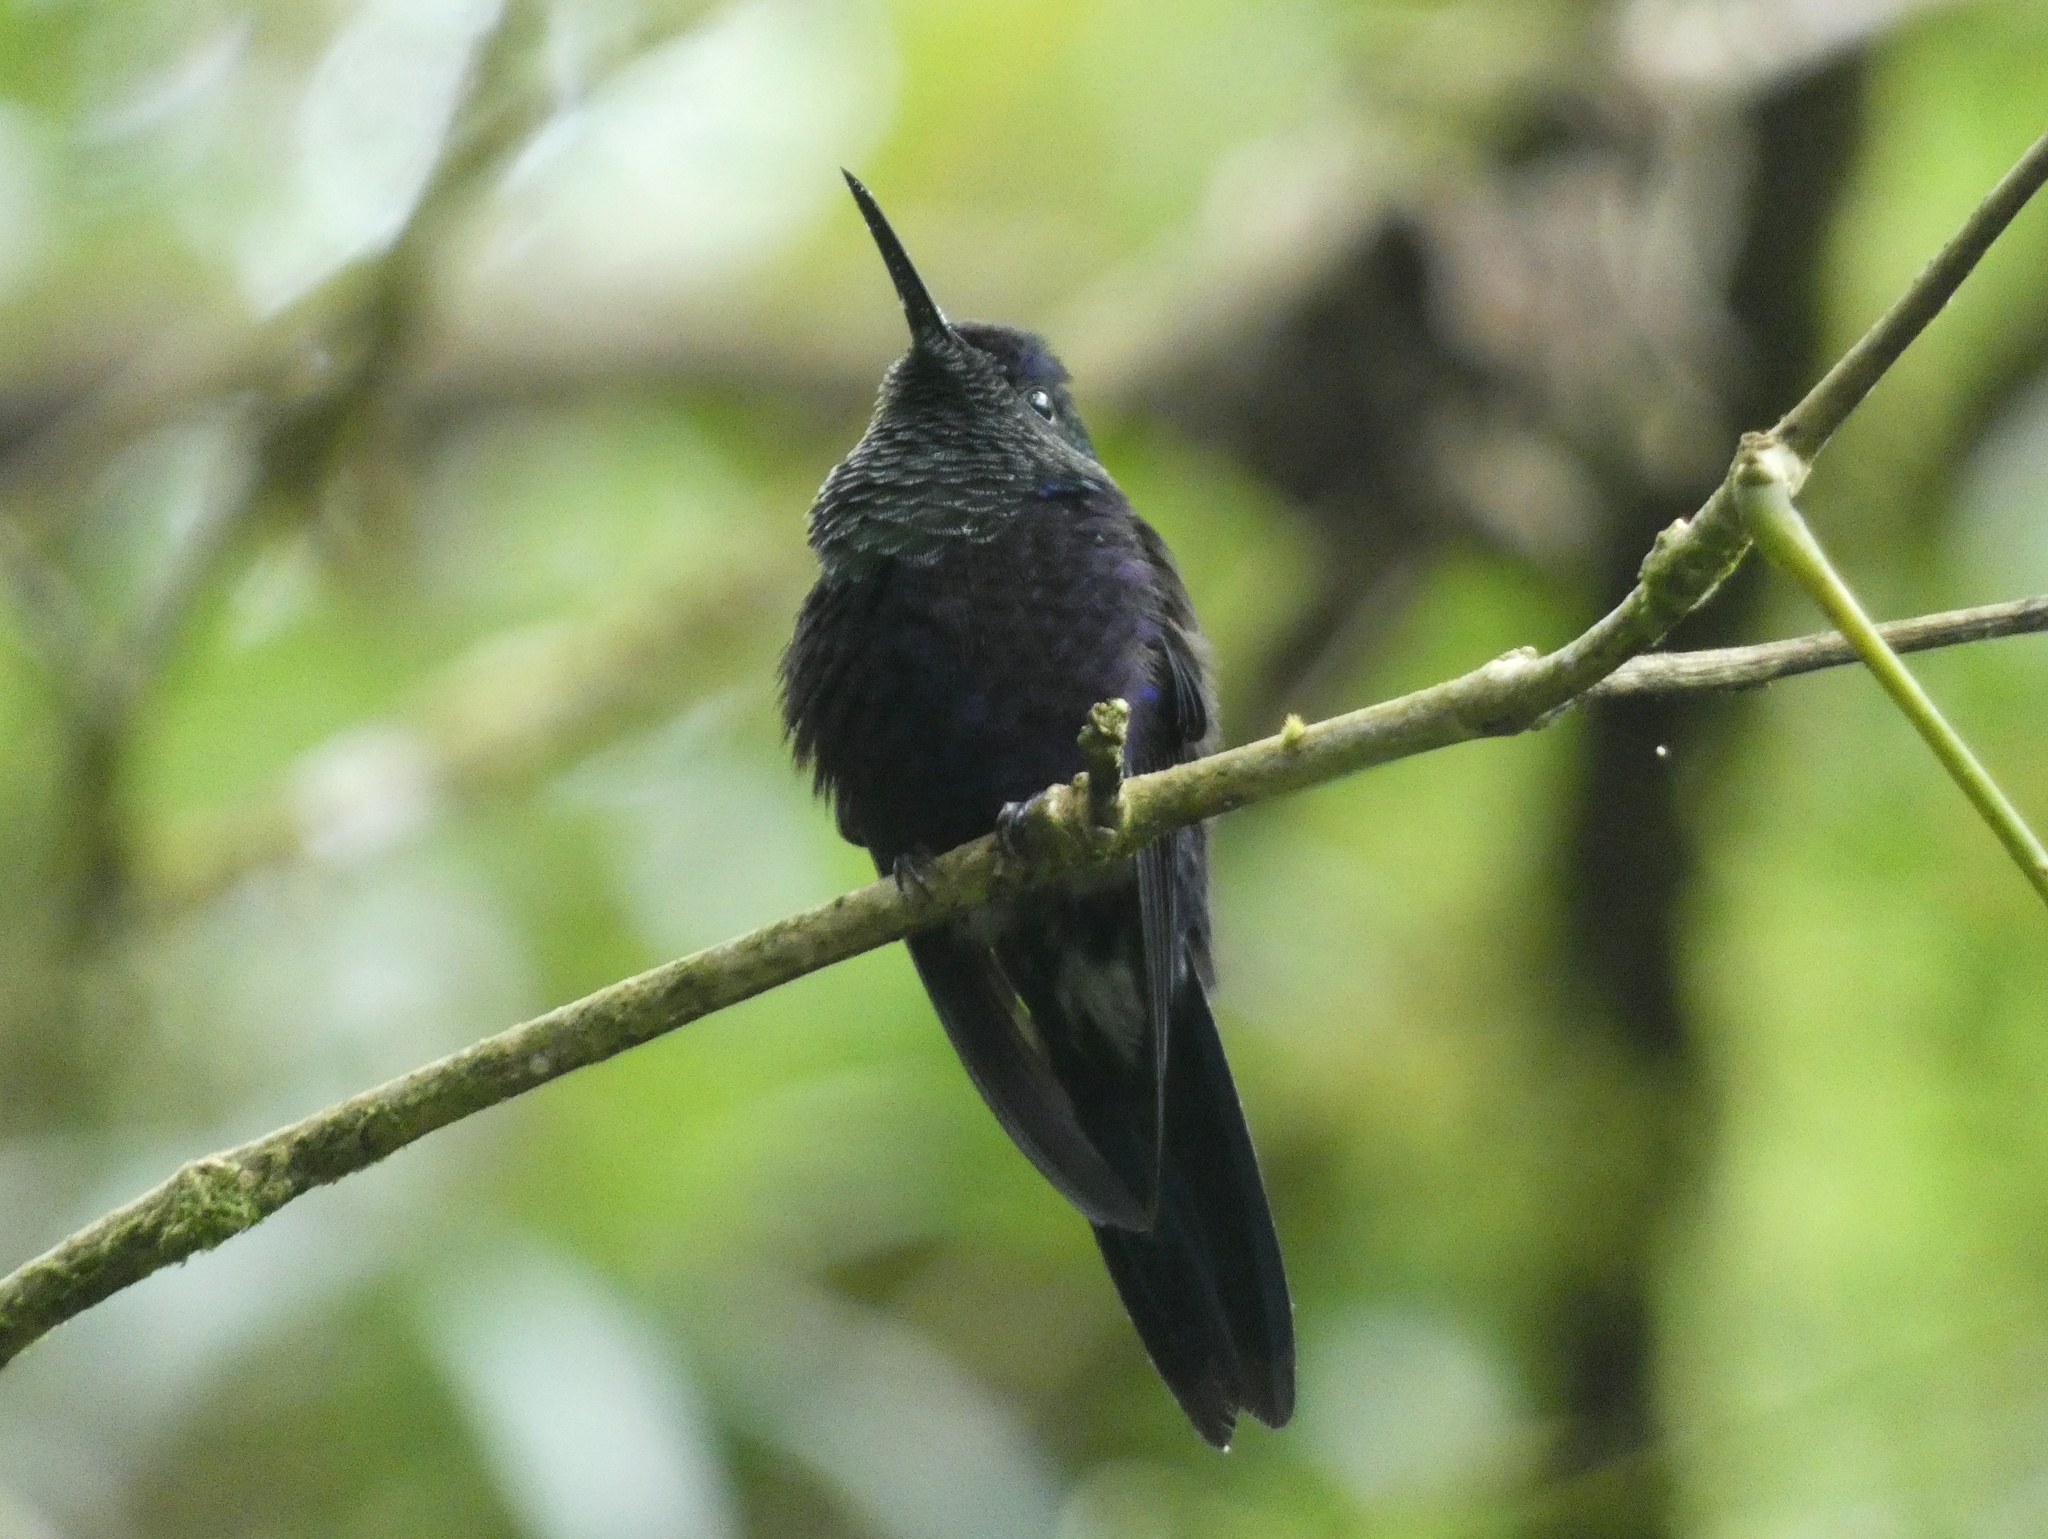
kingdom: Animalia
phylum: Chordata
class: Aves
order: Apodiformes
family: Trochilidae
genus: Thalurania
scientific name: Thalurania colombica
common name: Crowned woodnymph
